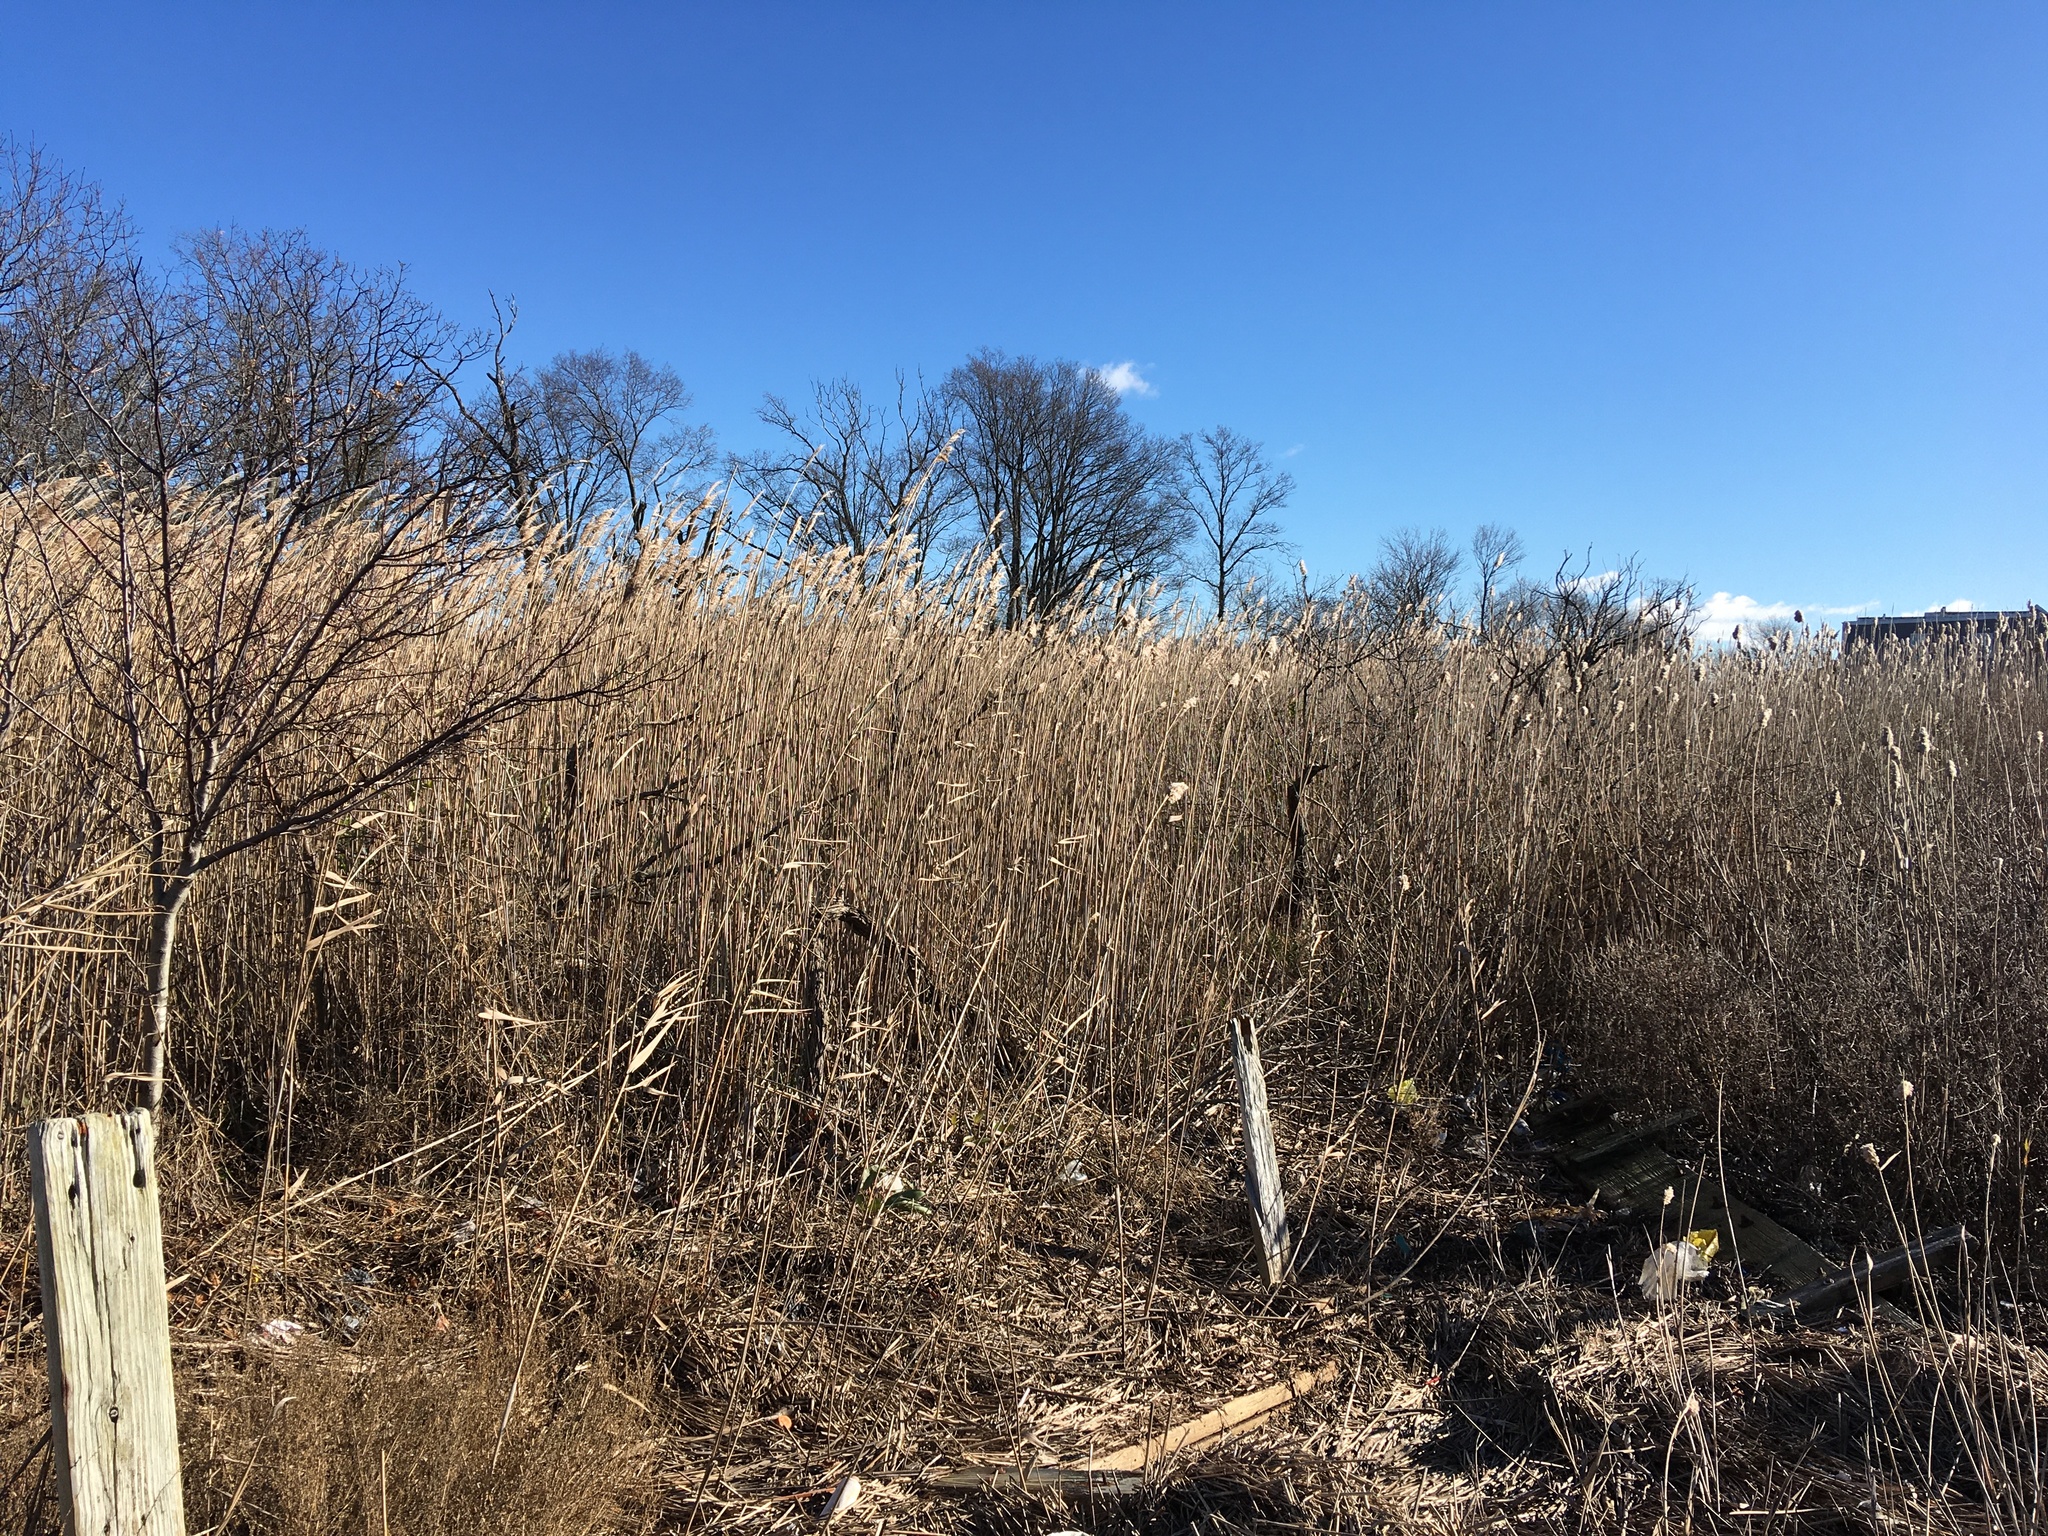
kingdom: Plantae
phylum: Tracheophyta
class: Liliopsida
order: Poales
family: Poaceae
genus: Phragmites
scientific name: Phragmites australis
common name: Common reed
